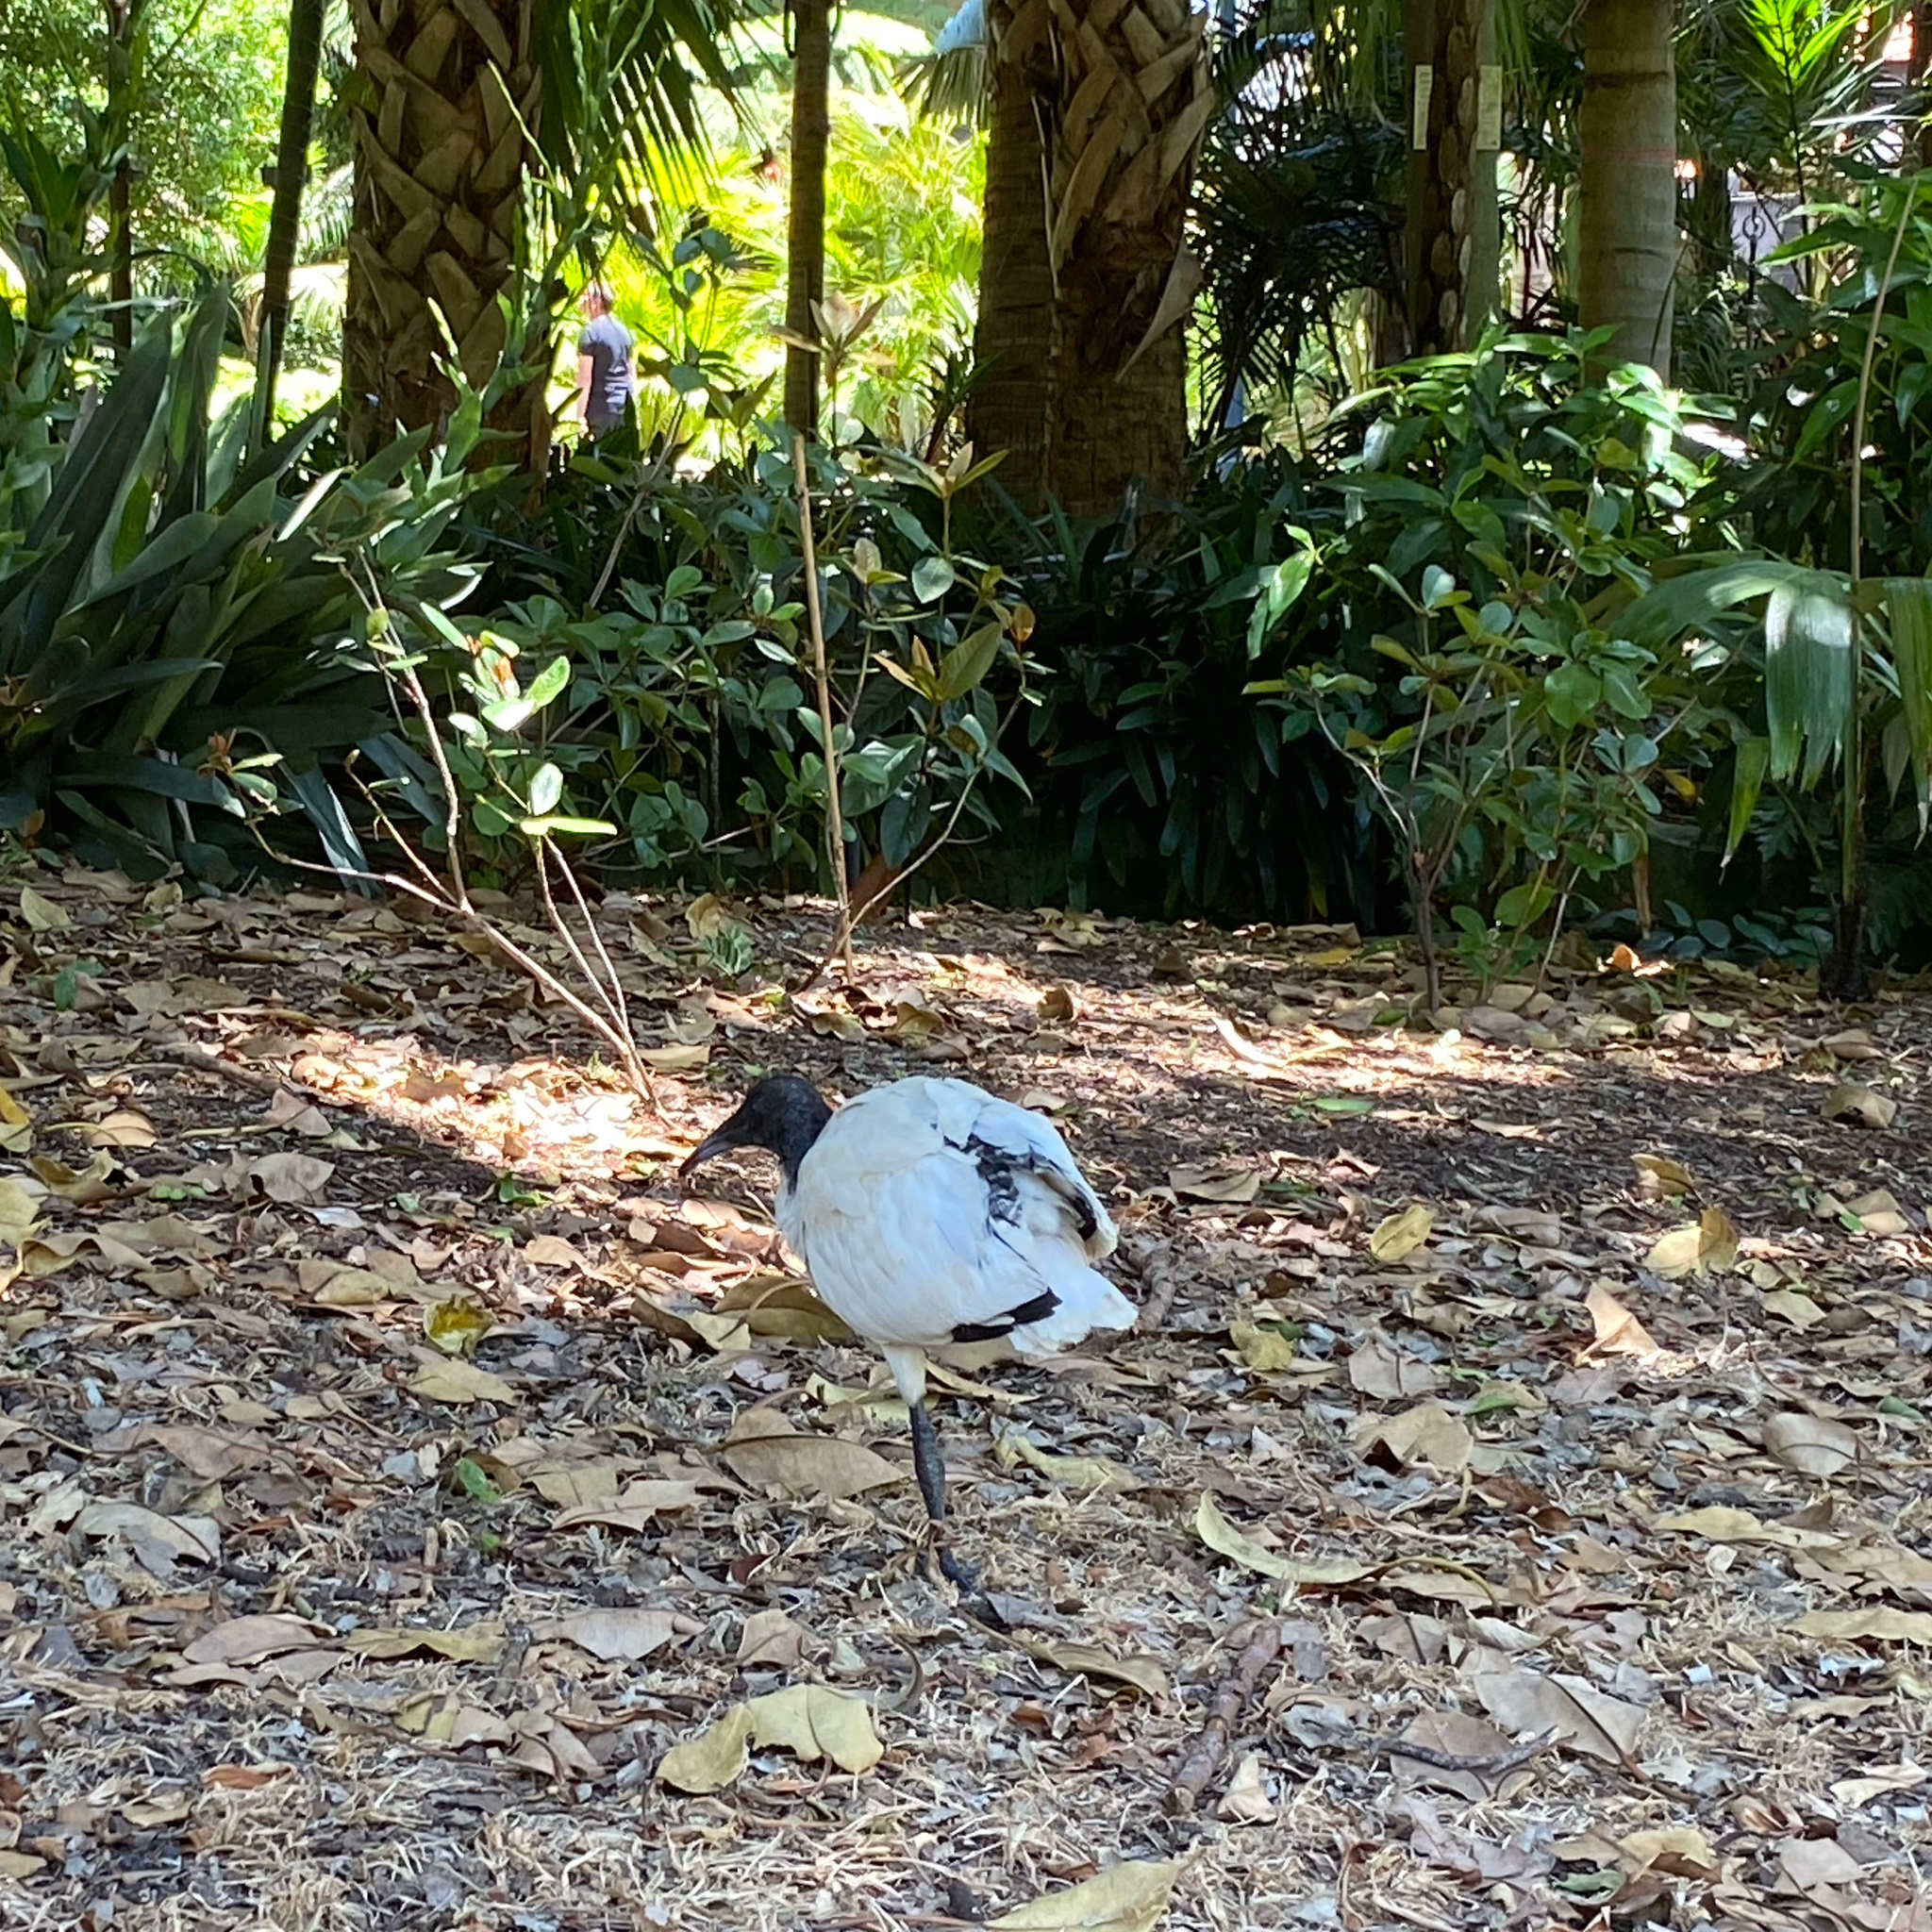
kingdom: Animalia
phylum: Chordata
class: Aves
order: Pelecaniformes
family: Threskiornithidae
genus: Threskiornis
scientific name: Threskiornis molucca
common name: Australian white ibis
